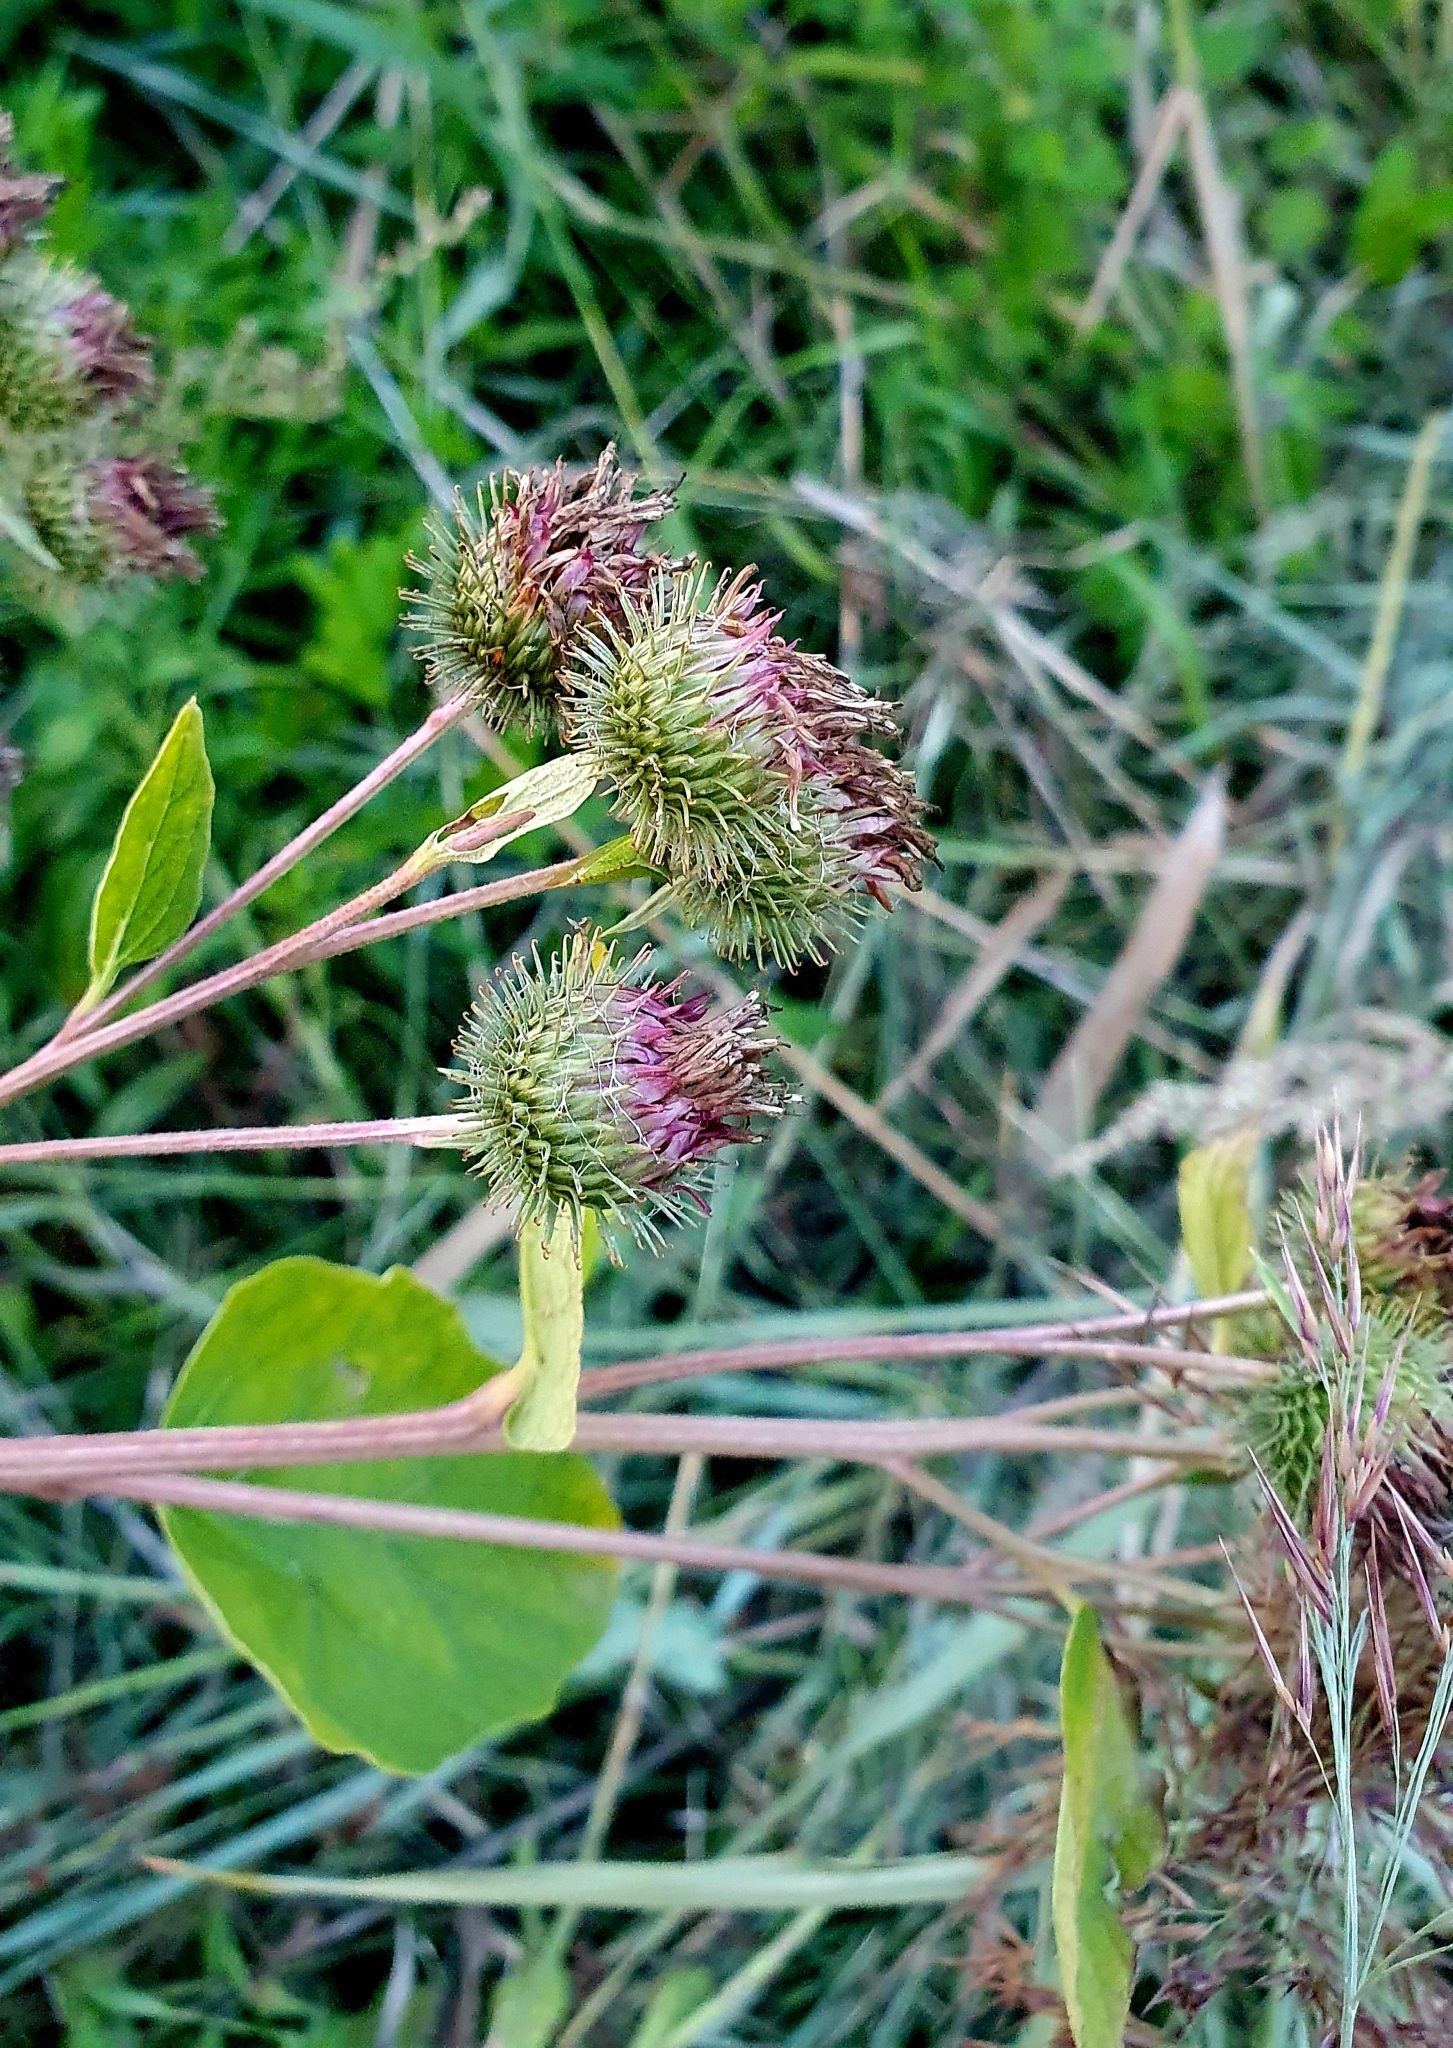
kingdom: Plantae
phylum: Tracheophyta
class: Magnoliopsida
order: Asterales
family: Asteraceae
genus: Arctium
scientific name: Arctium lappa
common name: Greater burdock
